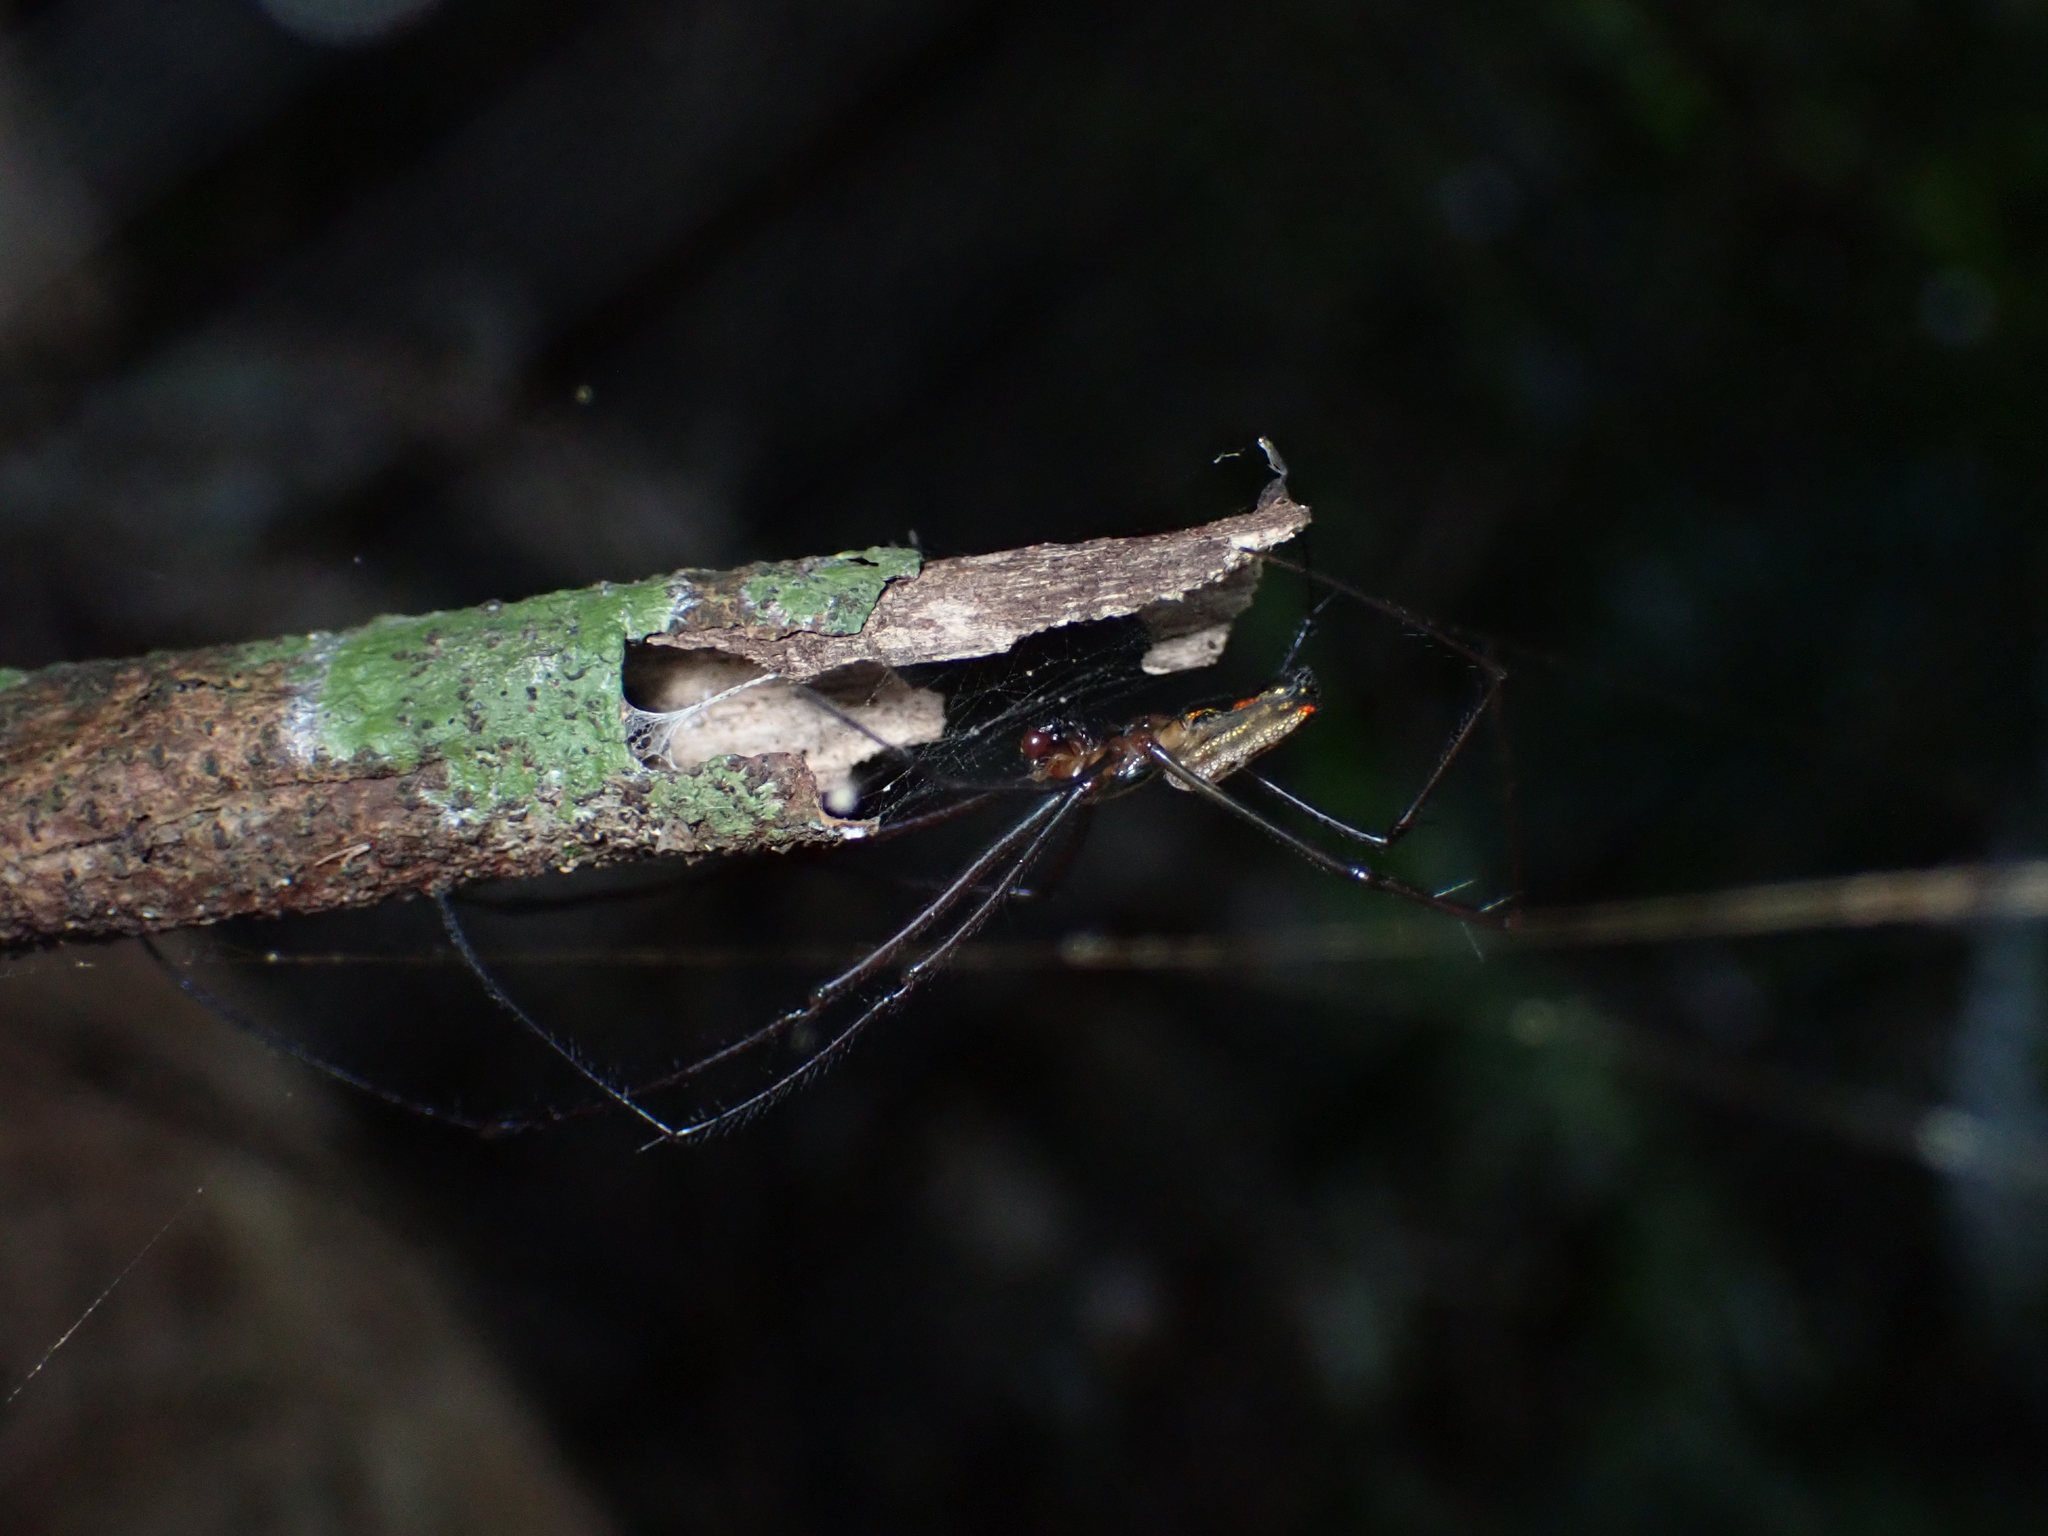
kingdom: Animalia
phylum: Arthropoda
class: Arachnida
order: Araneae
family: Tetragnathidae
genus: Leucauge
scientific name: Leucauge hebridisiana
